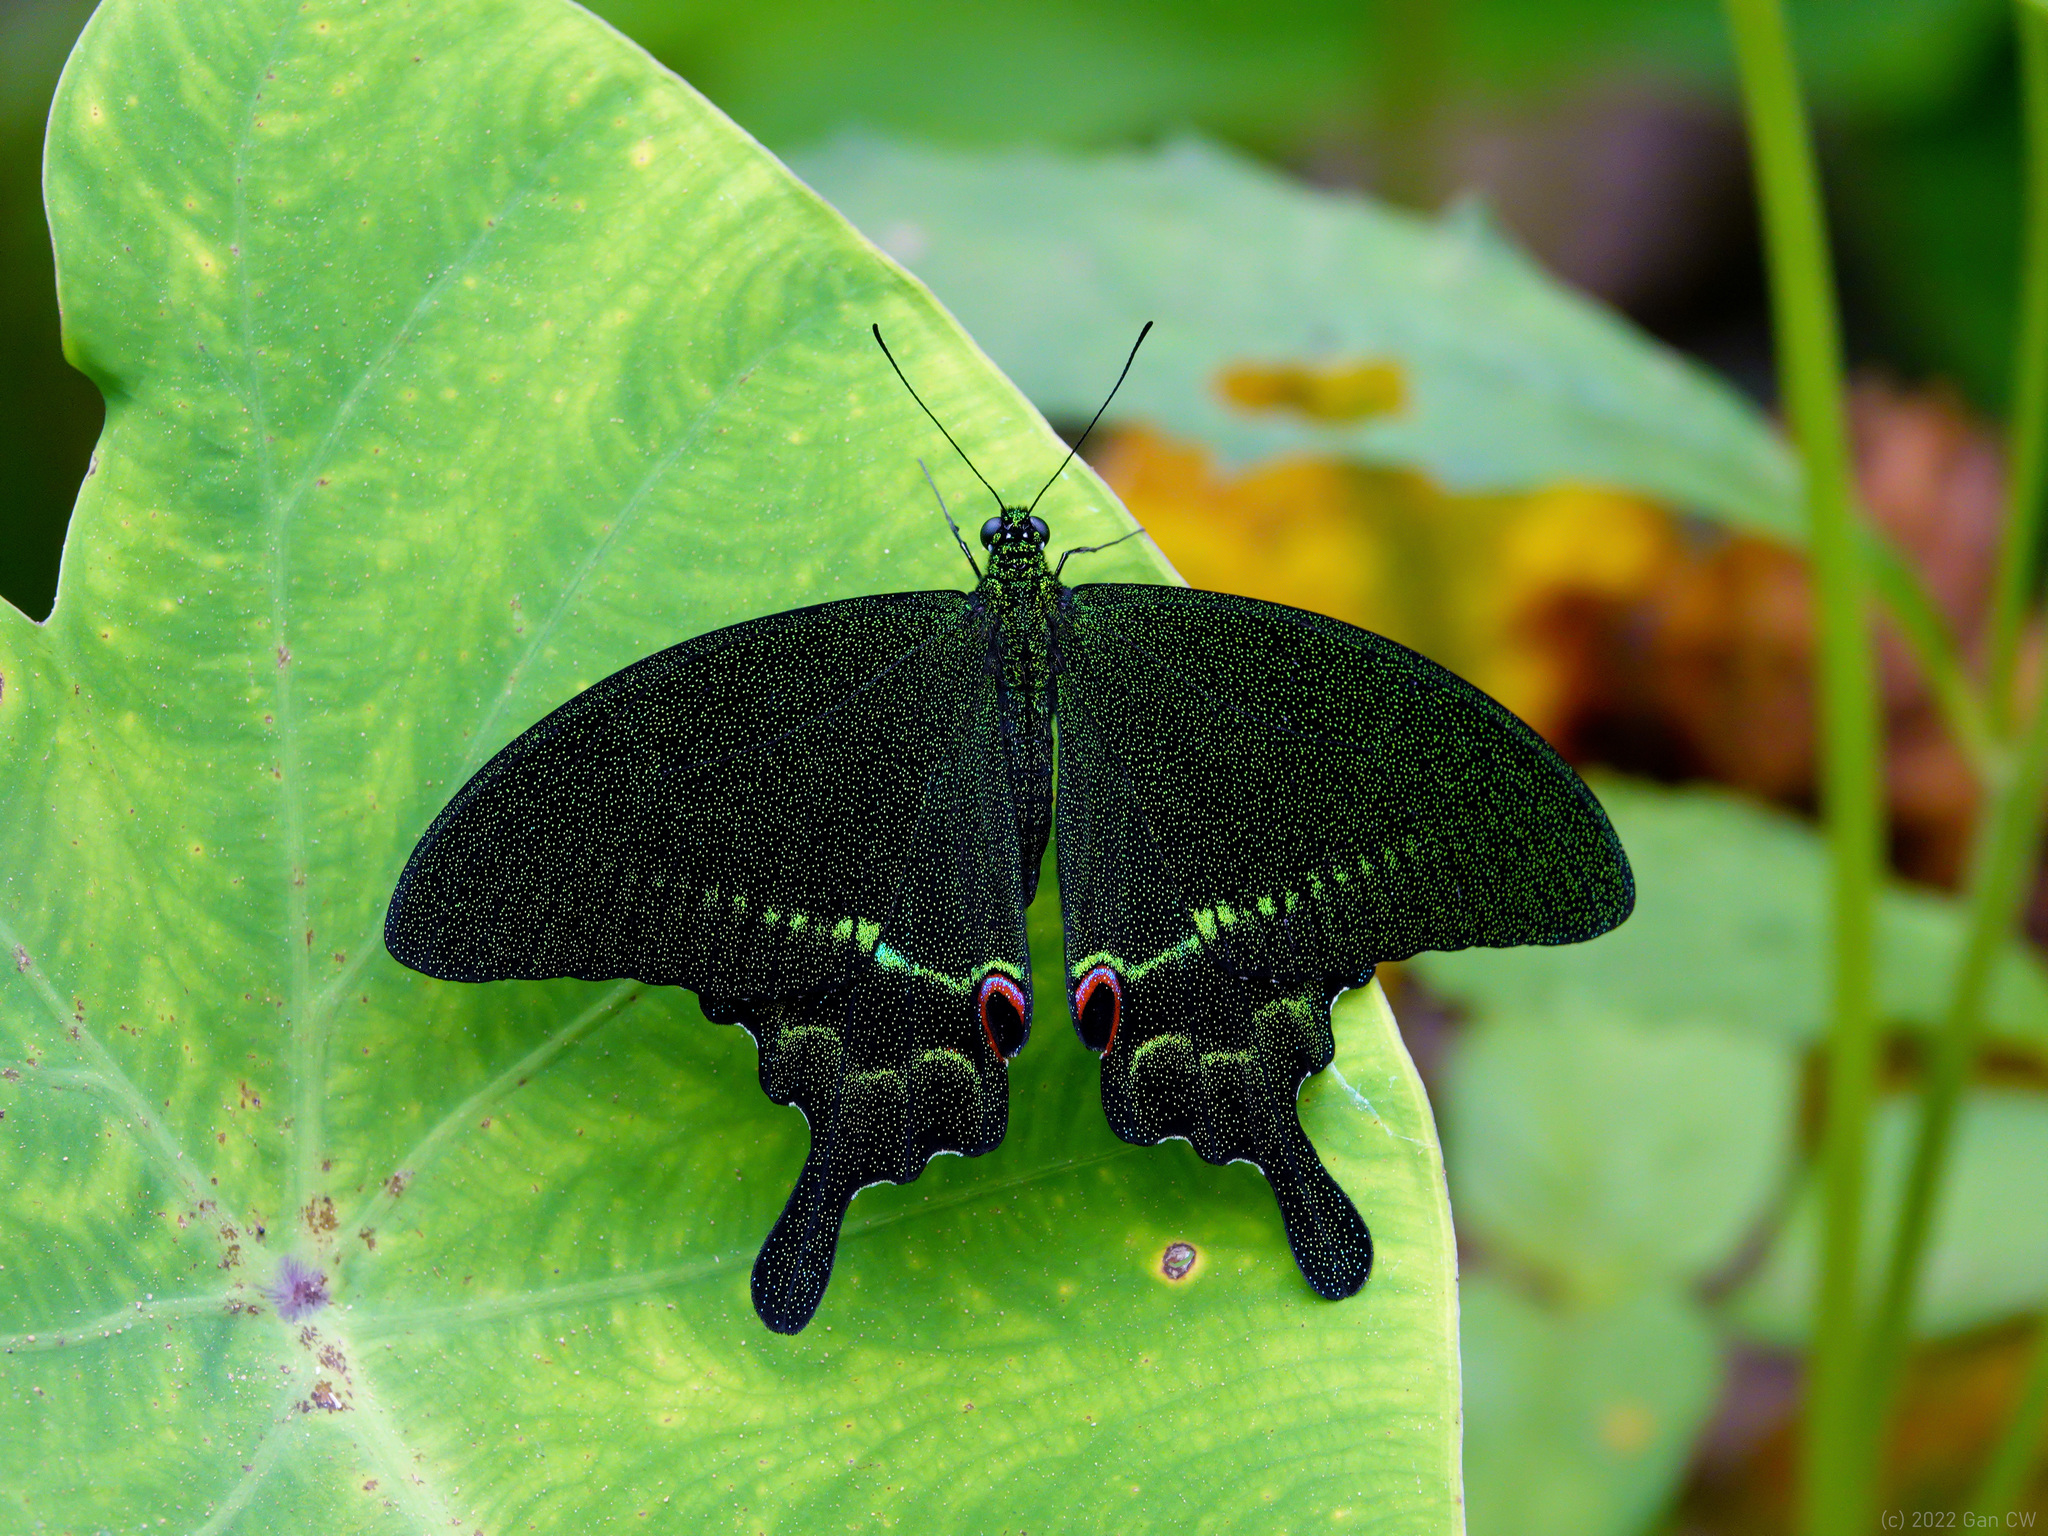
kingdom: Animalia
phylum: Arthropoda
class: Insecta
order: Lepidoptera
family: Papilionidae
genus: Papilio
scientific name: Papilio paris
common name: Paris peacock
